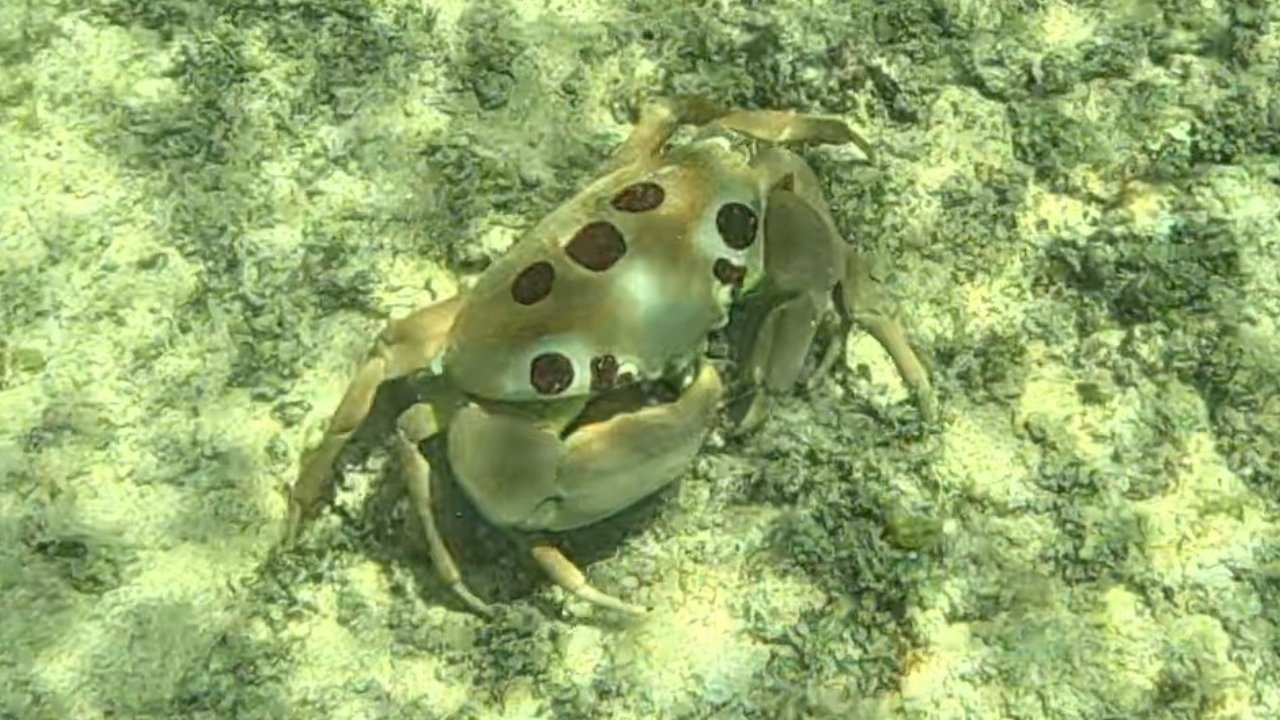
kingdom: Animalia
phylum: Arthropoda
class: Malacostraca
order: Decapoda
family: Carpiliidae
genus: Carpilius
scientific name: Carpilius maculatus
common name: Spotted reef crab
